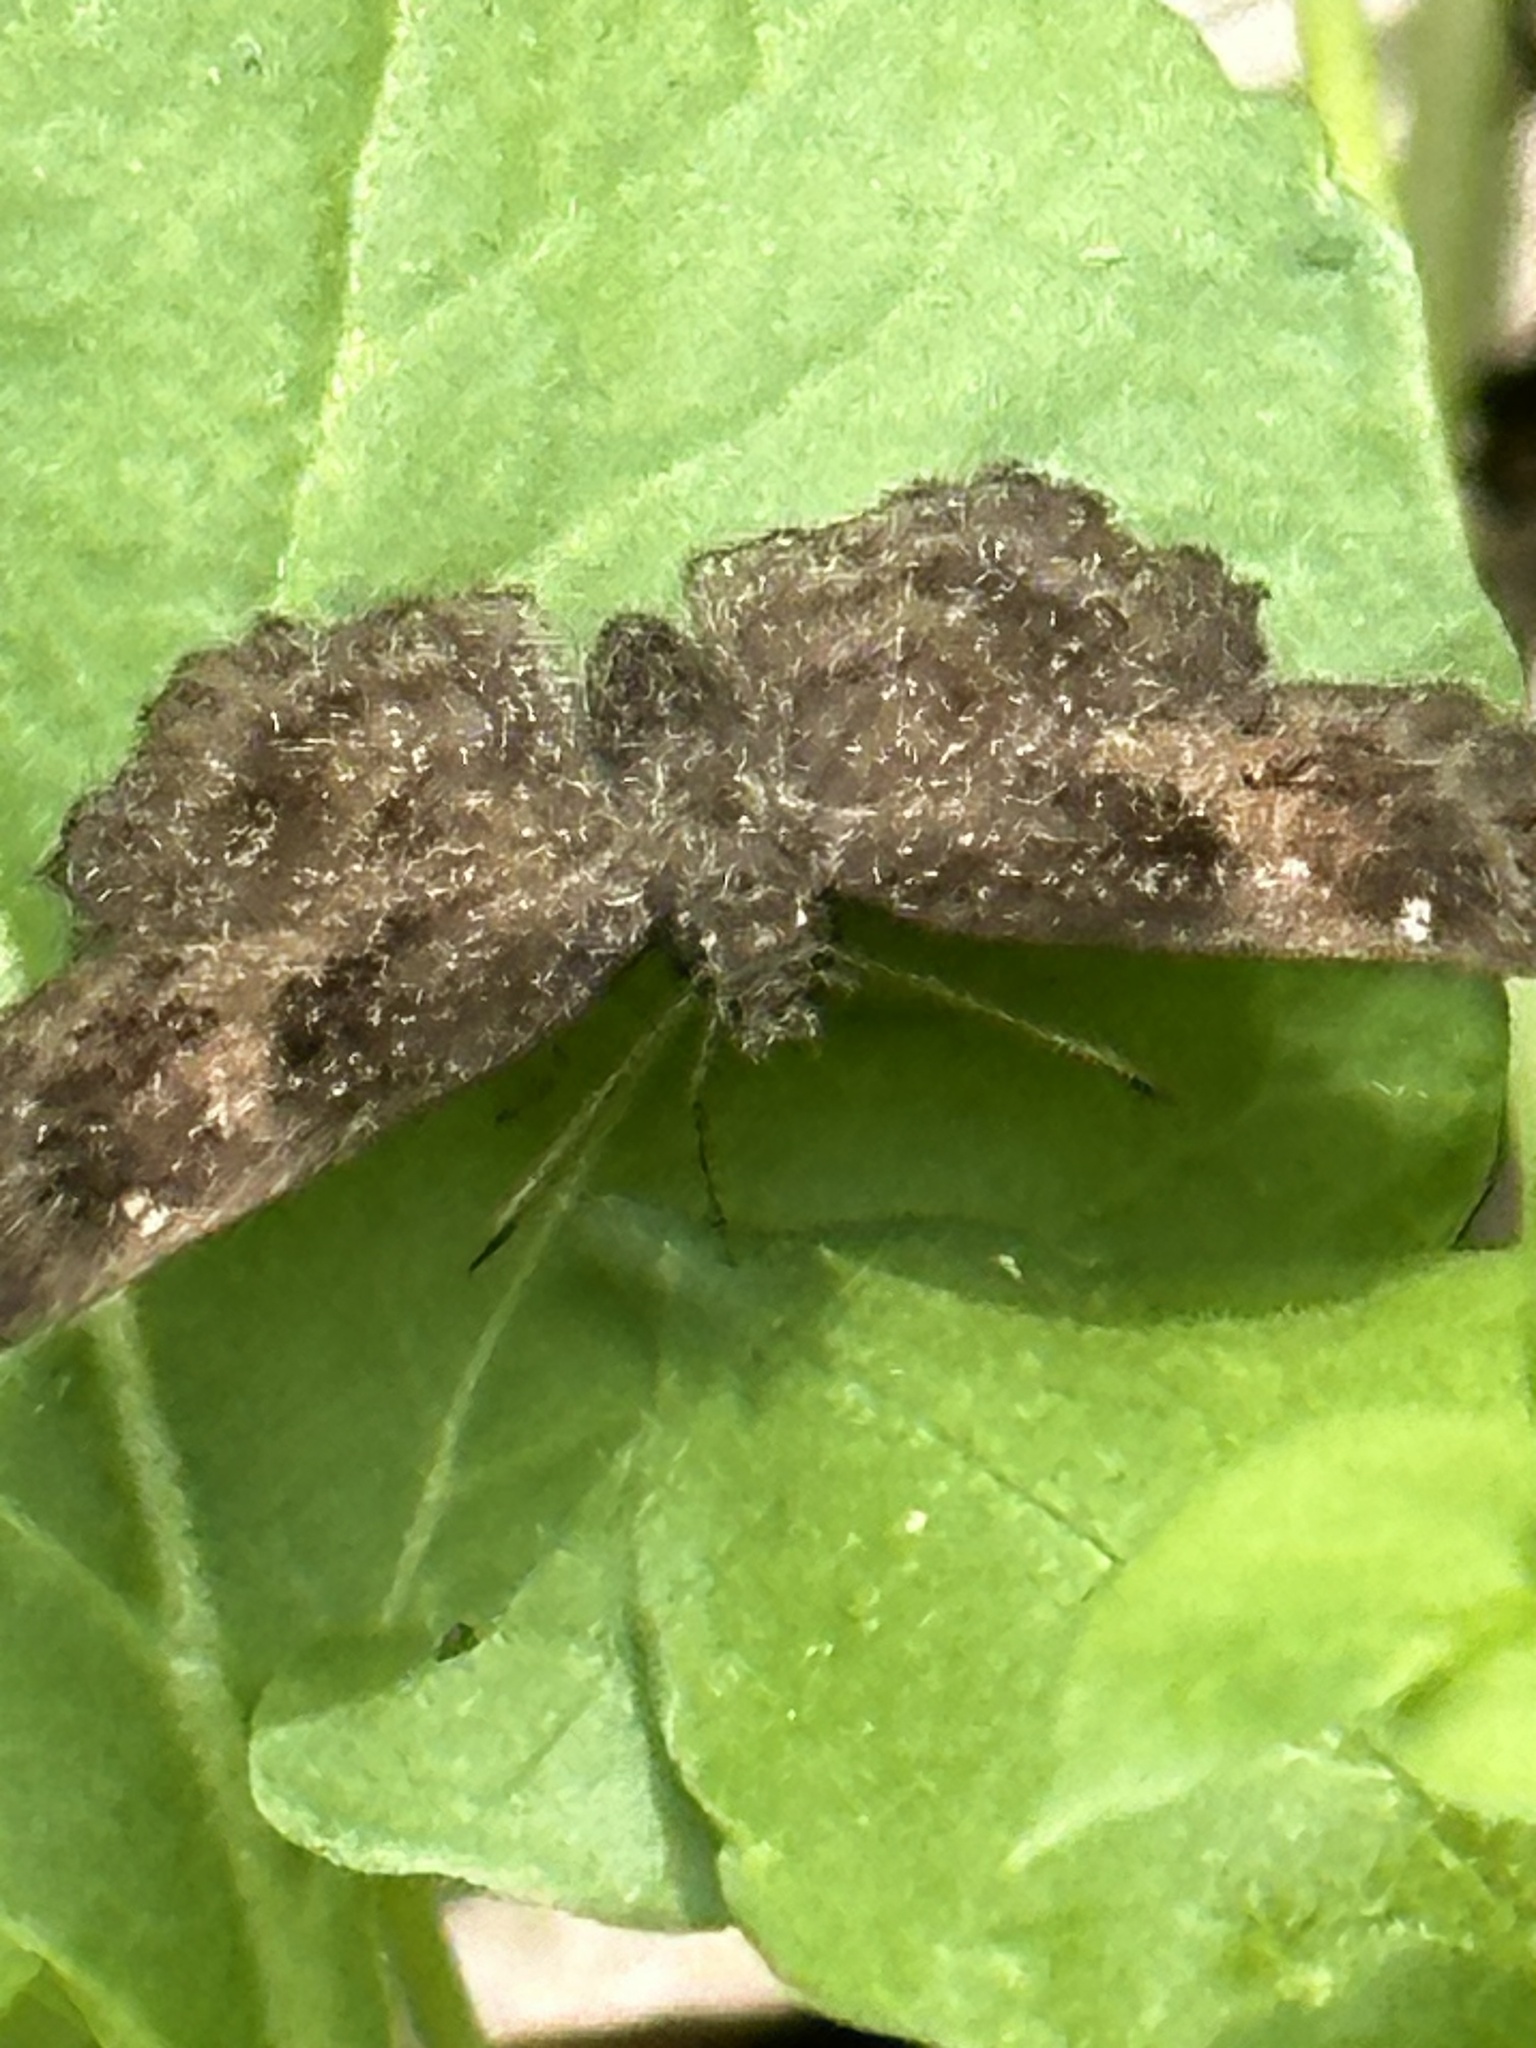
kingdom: Animalia
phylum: Arthropoda
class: Insecta
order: Lepidoptera
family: Hesperiidae
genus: Staphylus
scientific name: Staphylus mazans
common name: Mazans scallopwing
